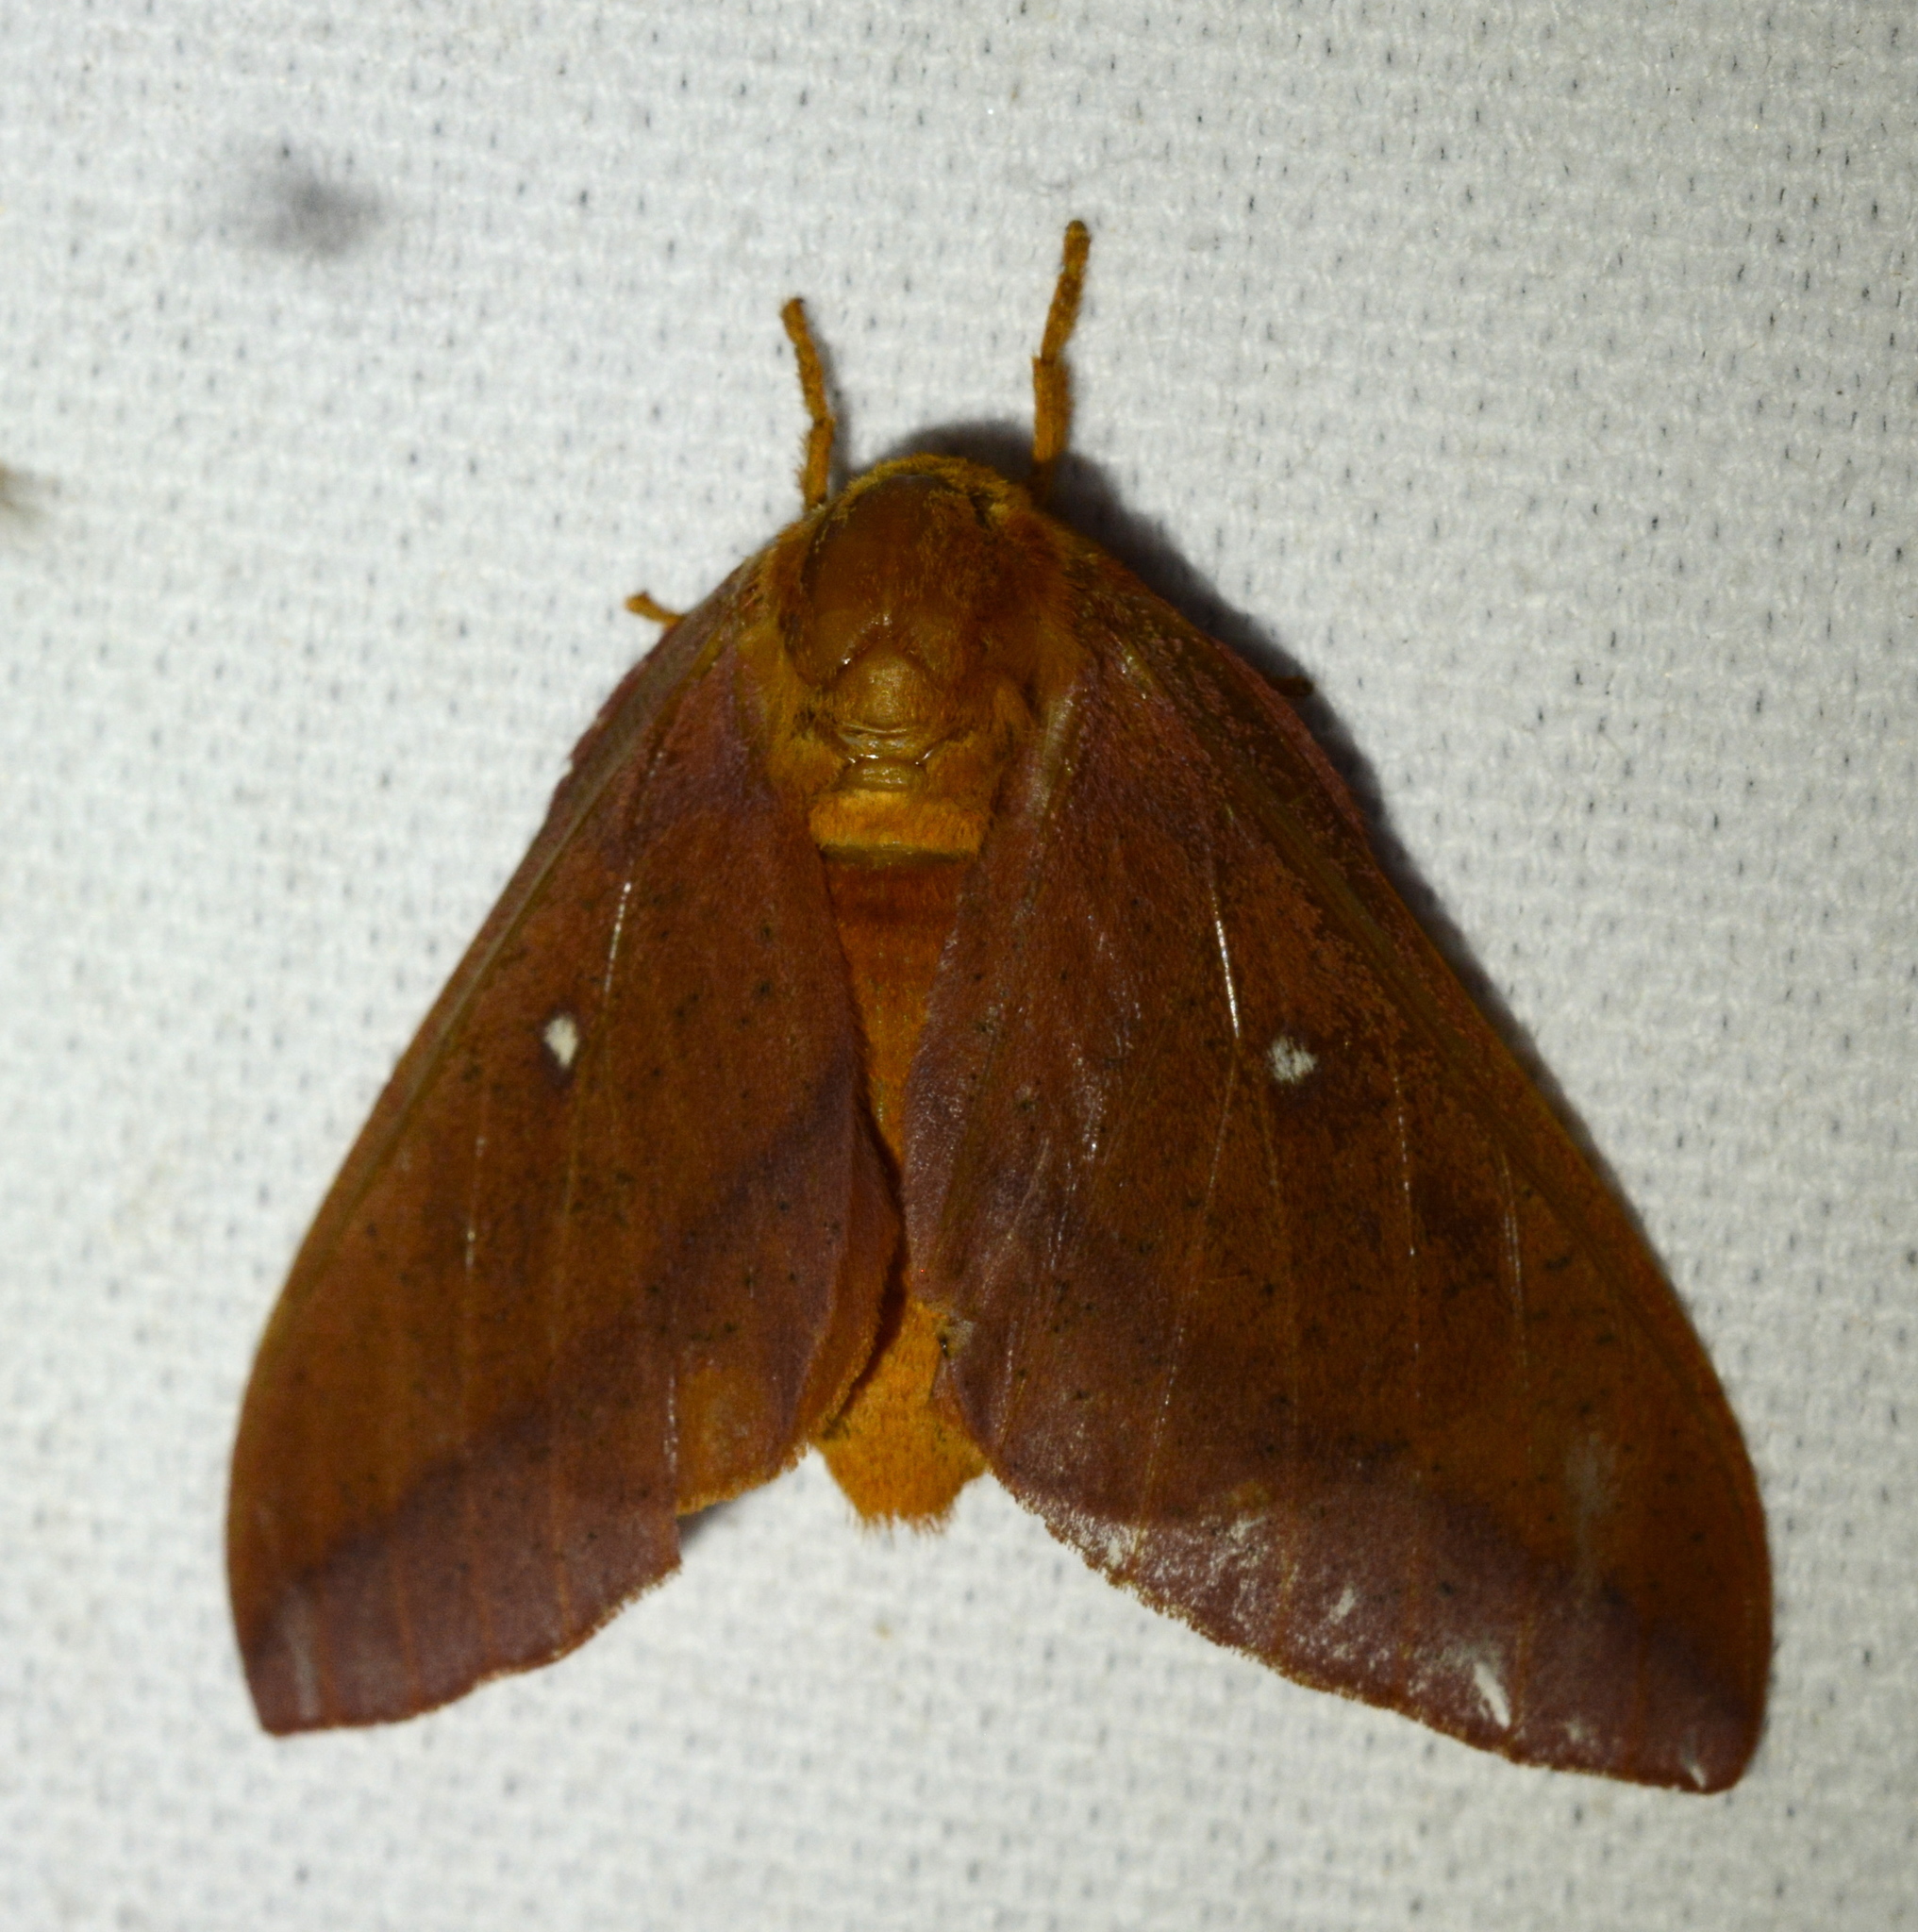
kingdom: Animalia
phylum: Arthropoda
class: Insecta
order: Lepidoptera
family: Saturniidae
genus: Anisota
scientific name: Anisota virginiensis
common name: Pink striped oakworm moth
